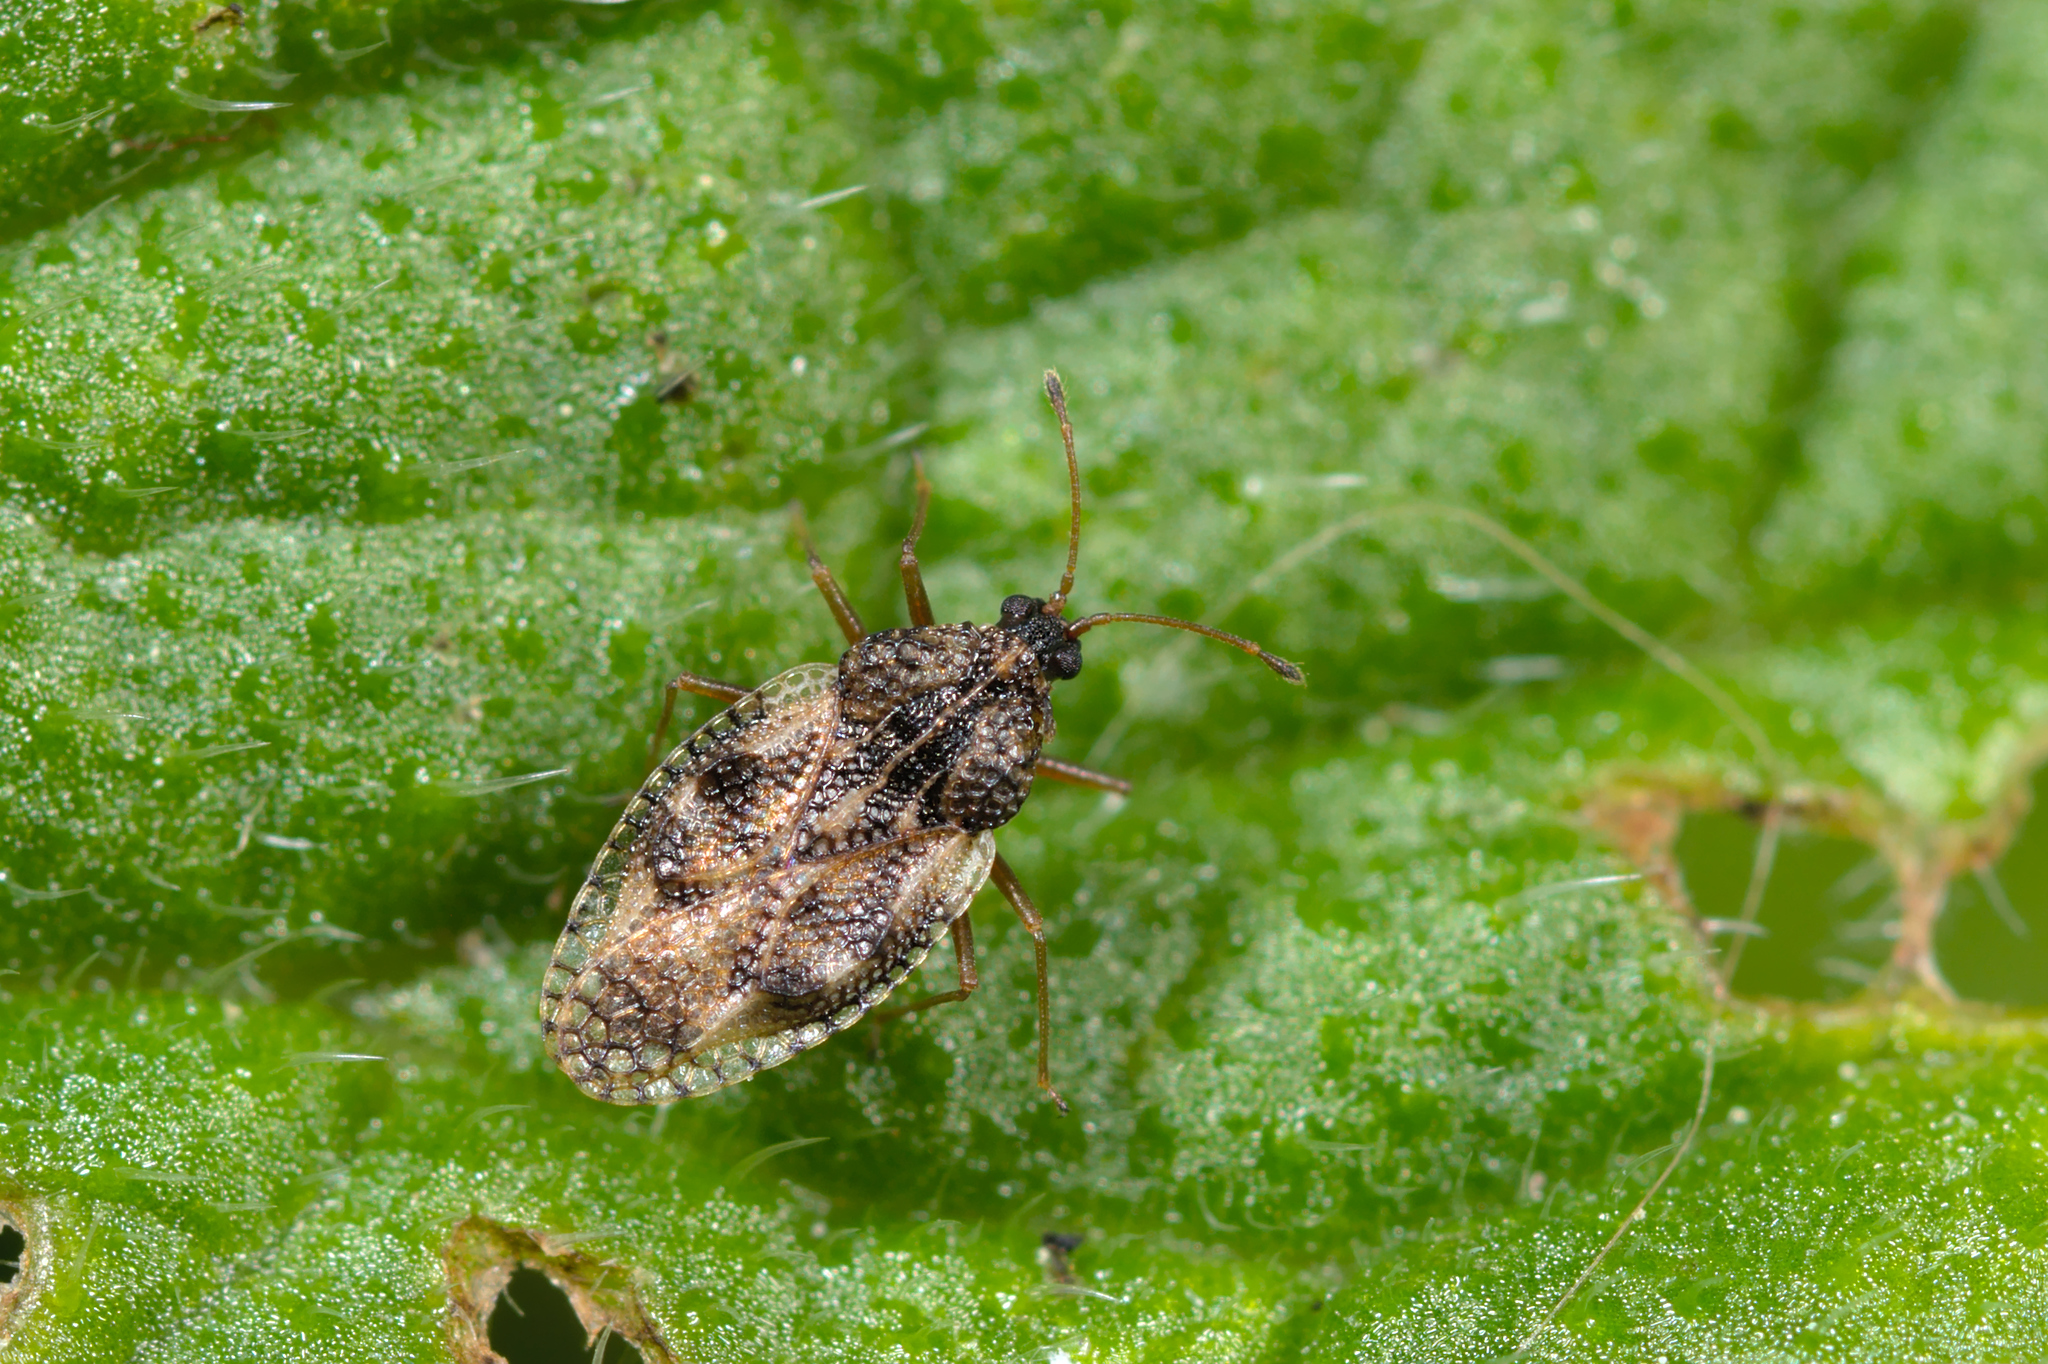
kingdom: Animalia
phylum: Arthropoda
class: Insecta
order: Hemiptera
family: Tingidae
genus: Dictyla
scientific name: Dictyla humuli
